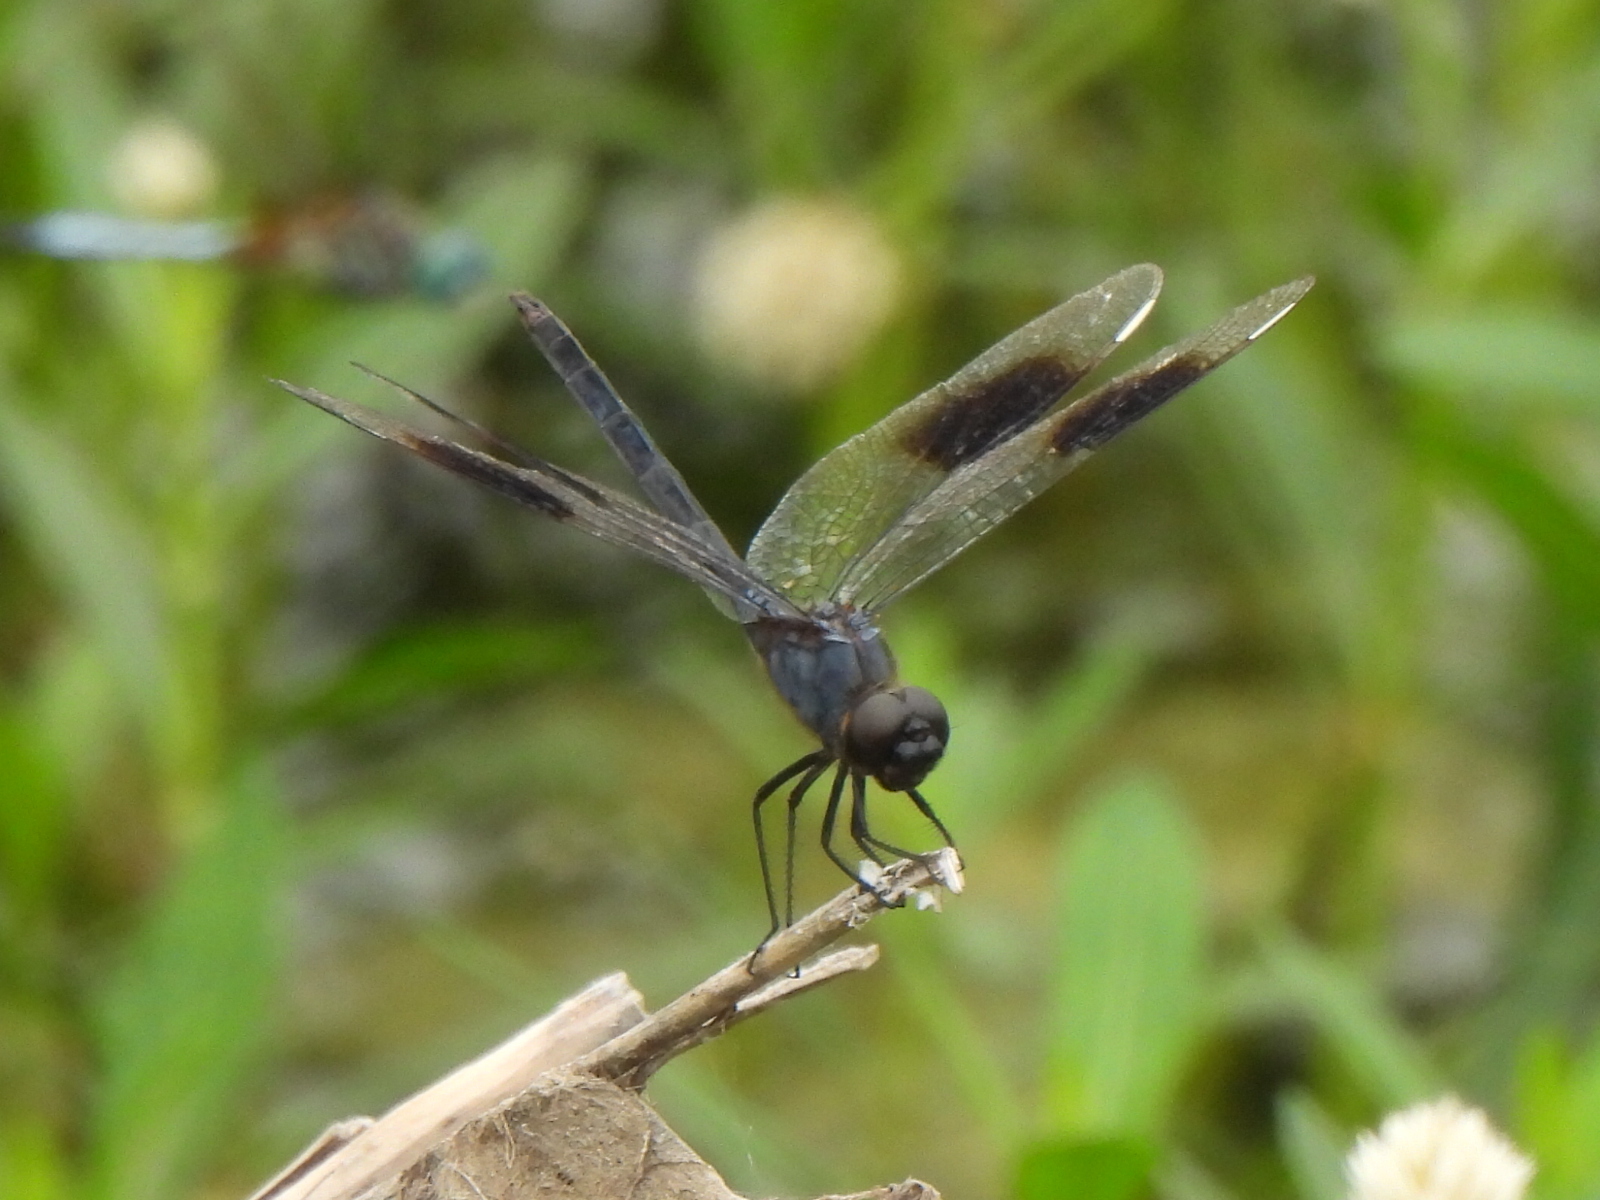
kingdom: Animalia
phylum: Arthropoda
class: Insecta
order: Odonata
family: Libellulidae
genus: Brachymesia
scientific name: Brachymesia gravida
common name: Four-spotted pennant
